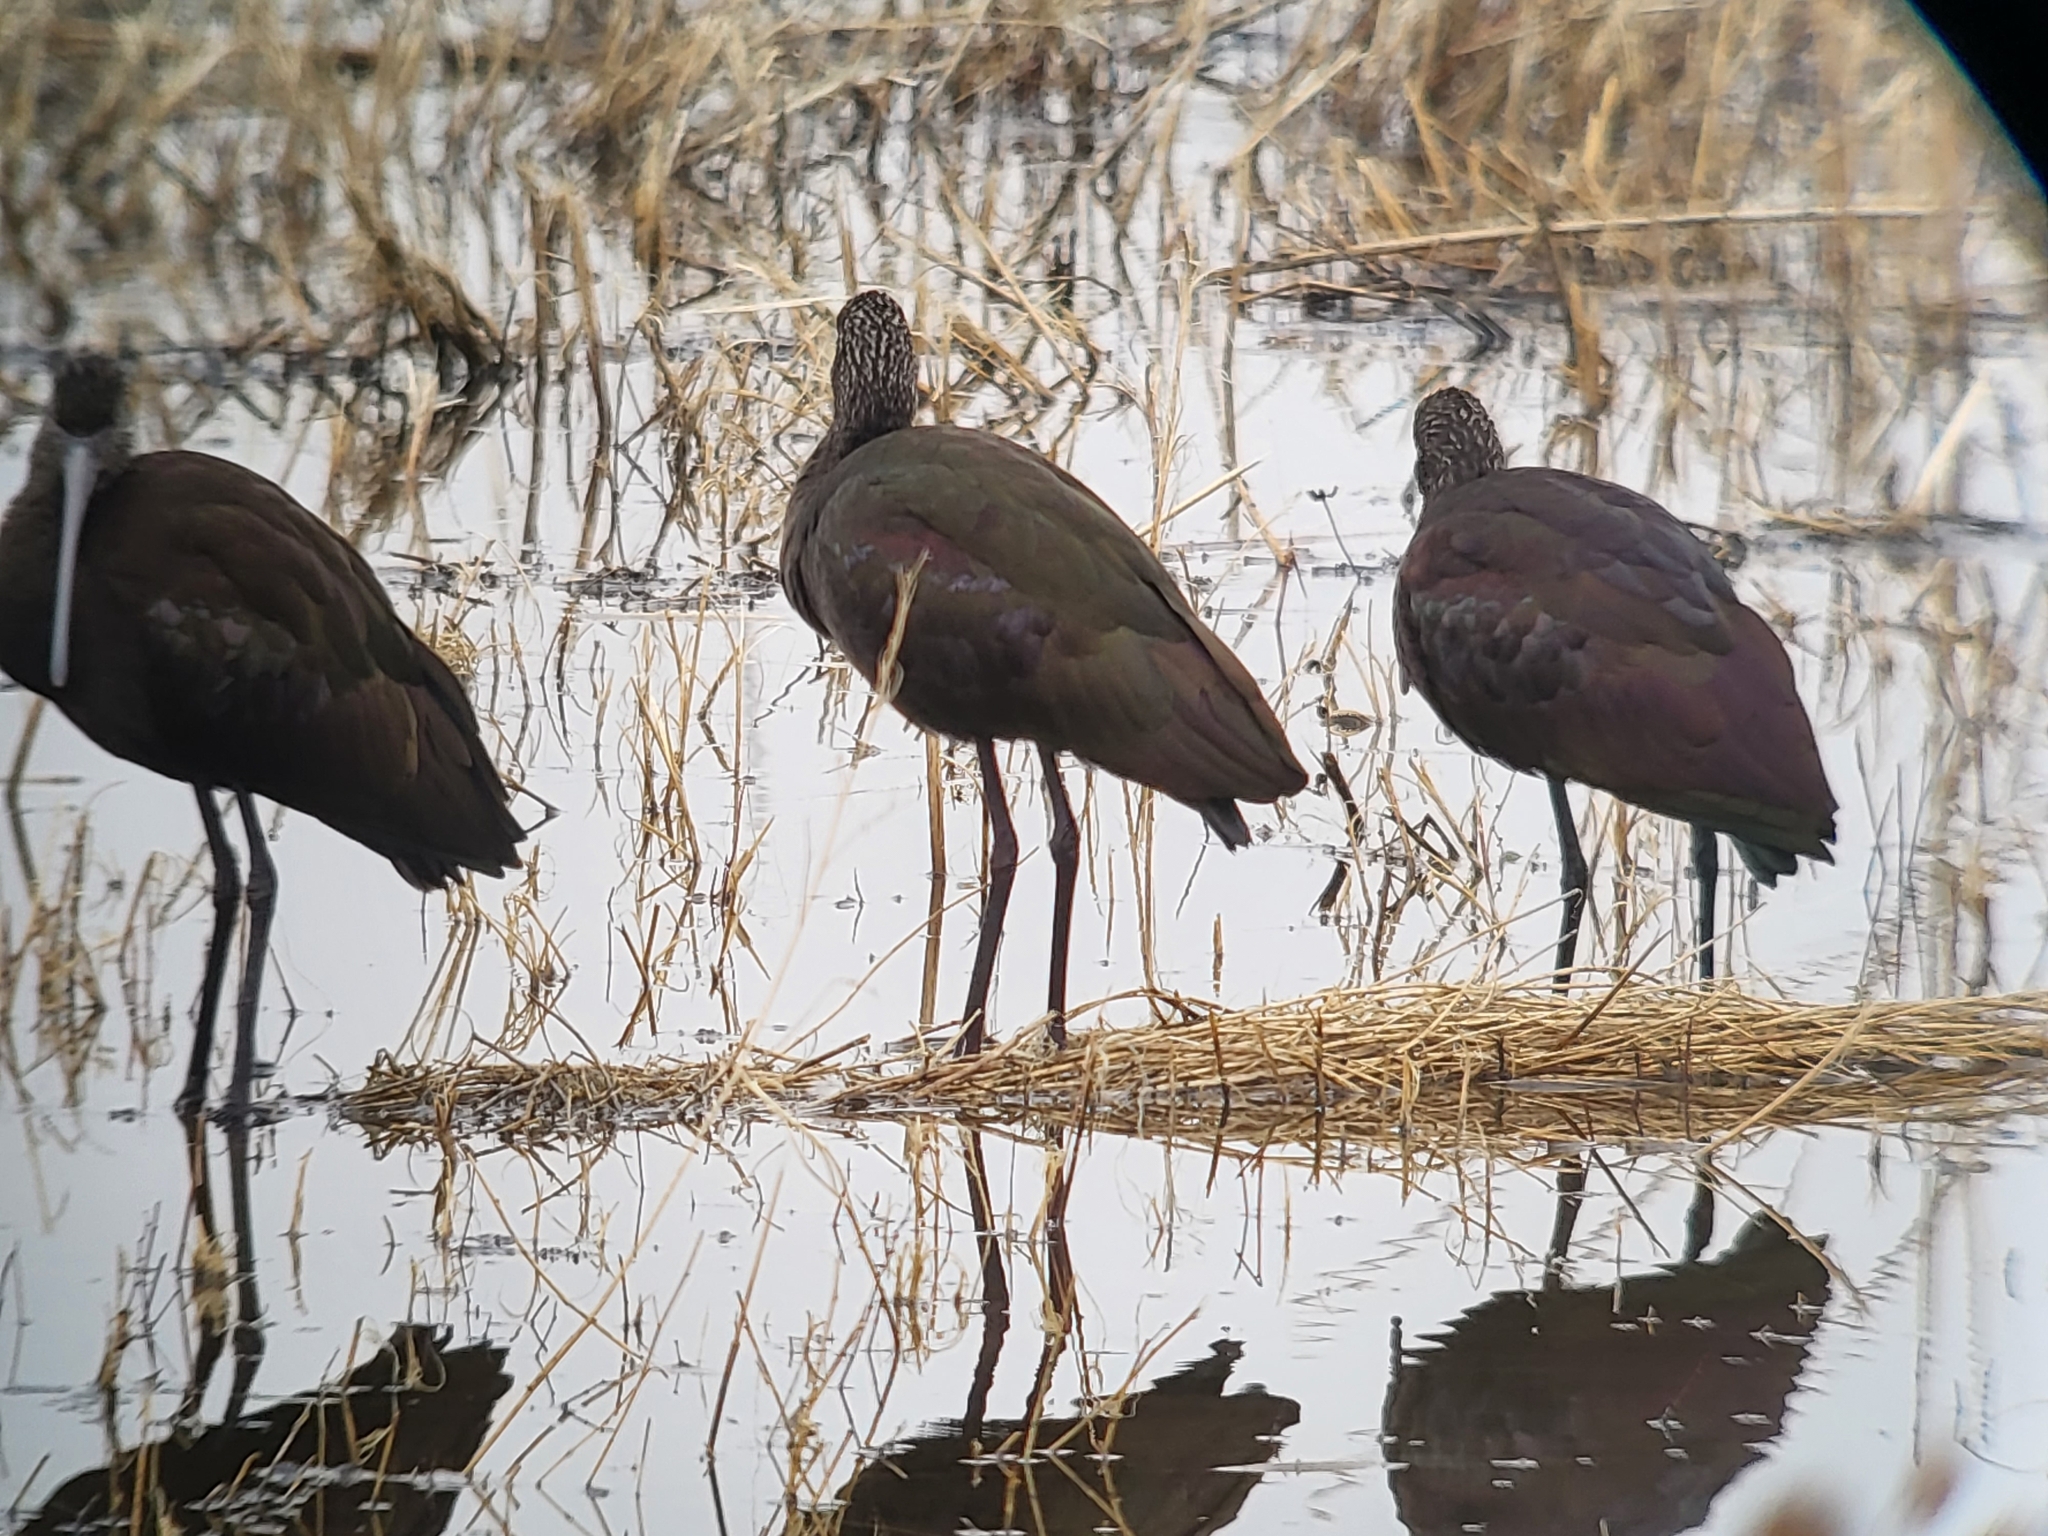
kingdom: Animalia
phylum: Chordata
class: Aves
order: Pelecaniformes
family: Threskiornithidae
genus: Plegadis
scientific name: Plegadis chihi
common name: White-faced ibis
